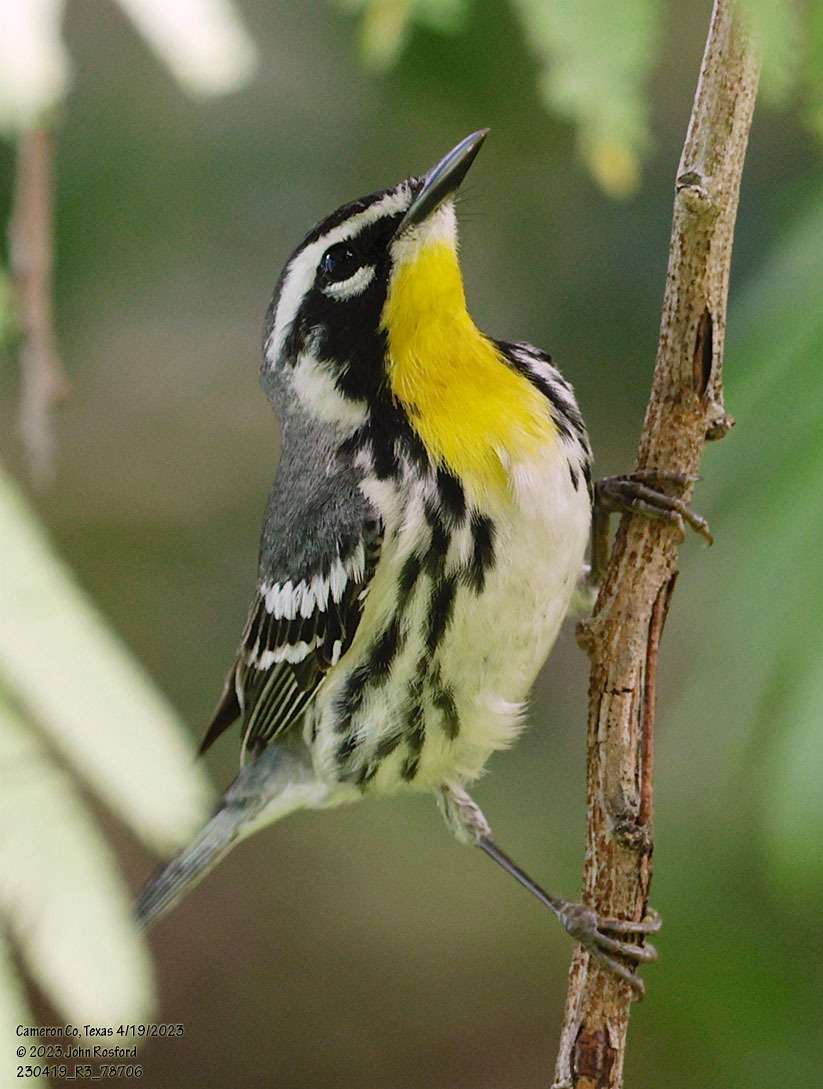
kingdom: Animalia
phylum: Chordata
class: Aves
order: Passeriformes
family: Parulidae
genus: Setophaga
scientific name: Setophaga dominica
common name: Yellow-throated warbler
